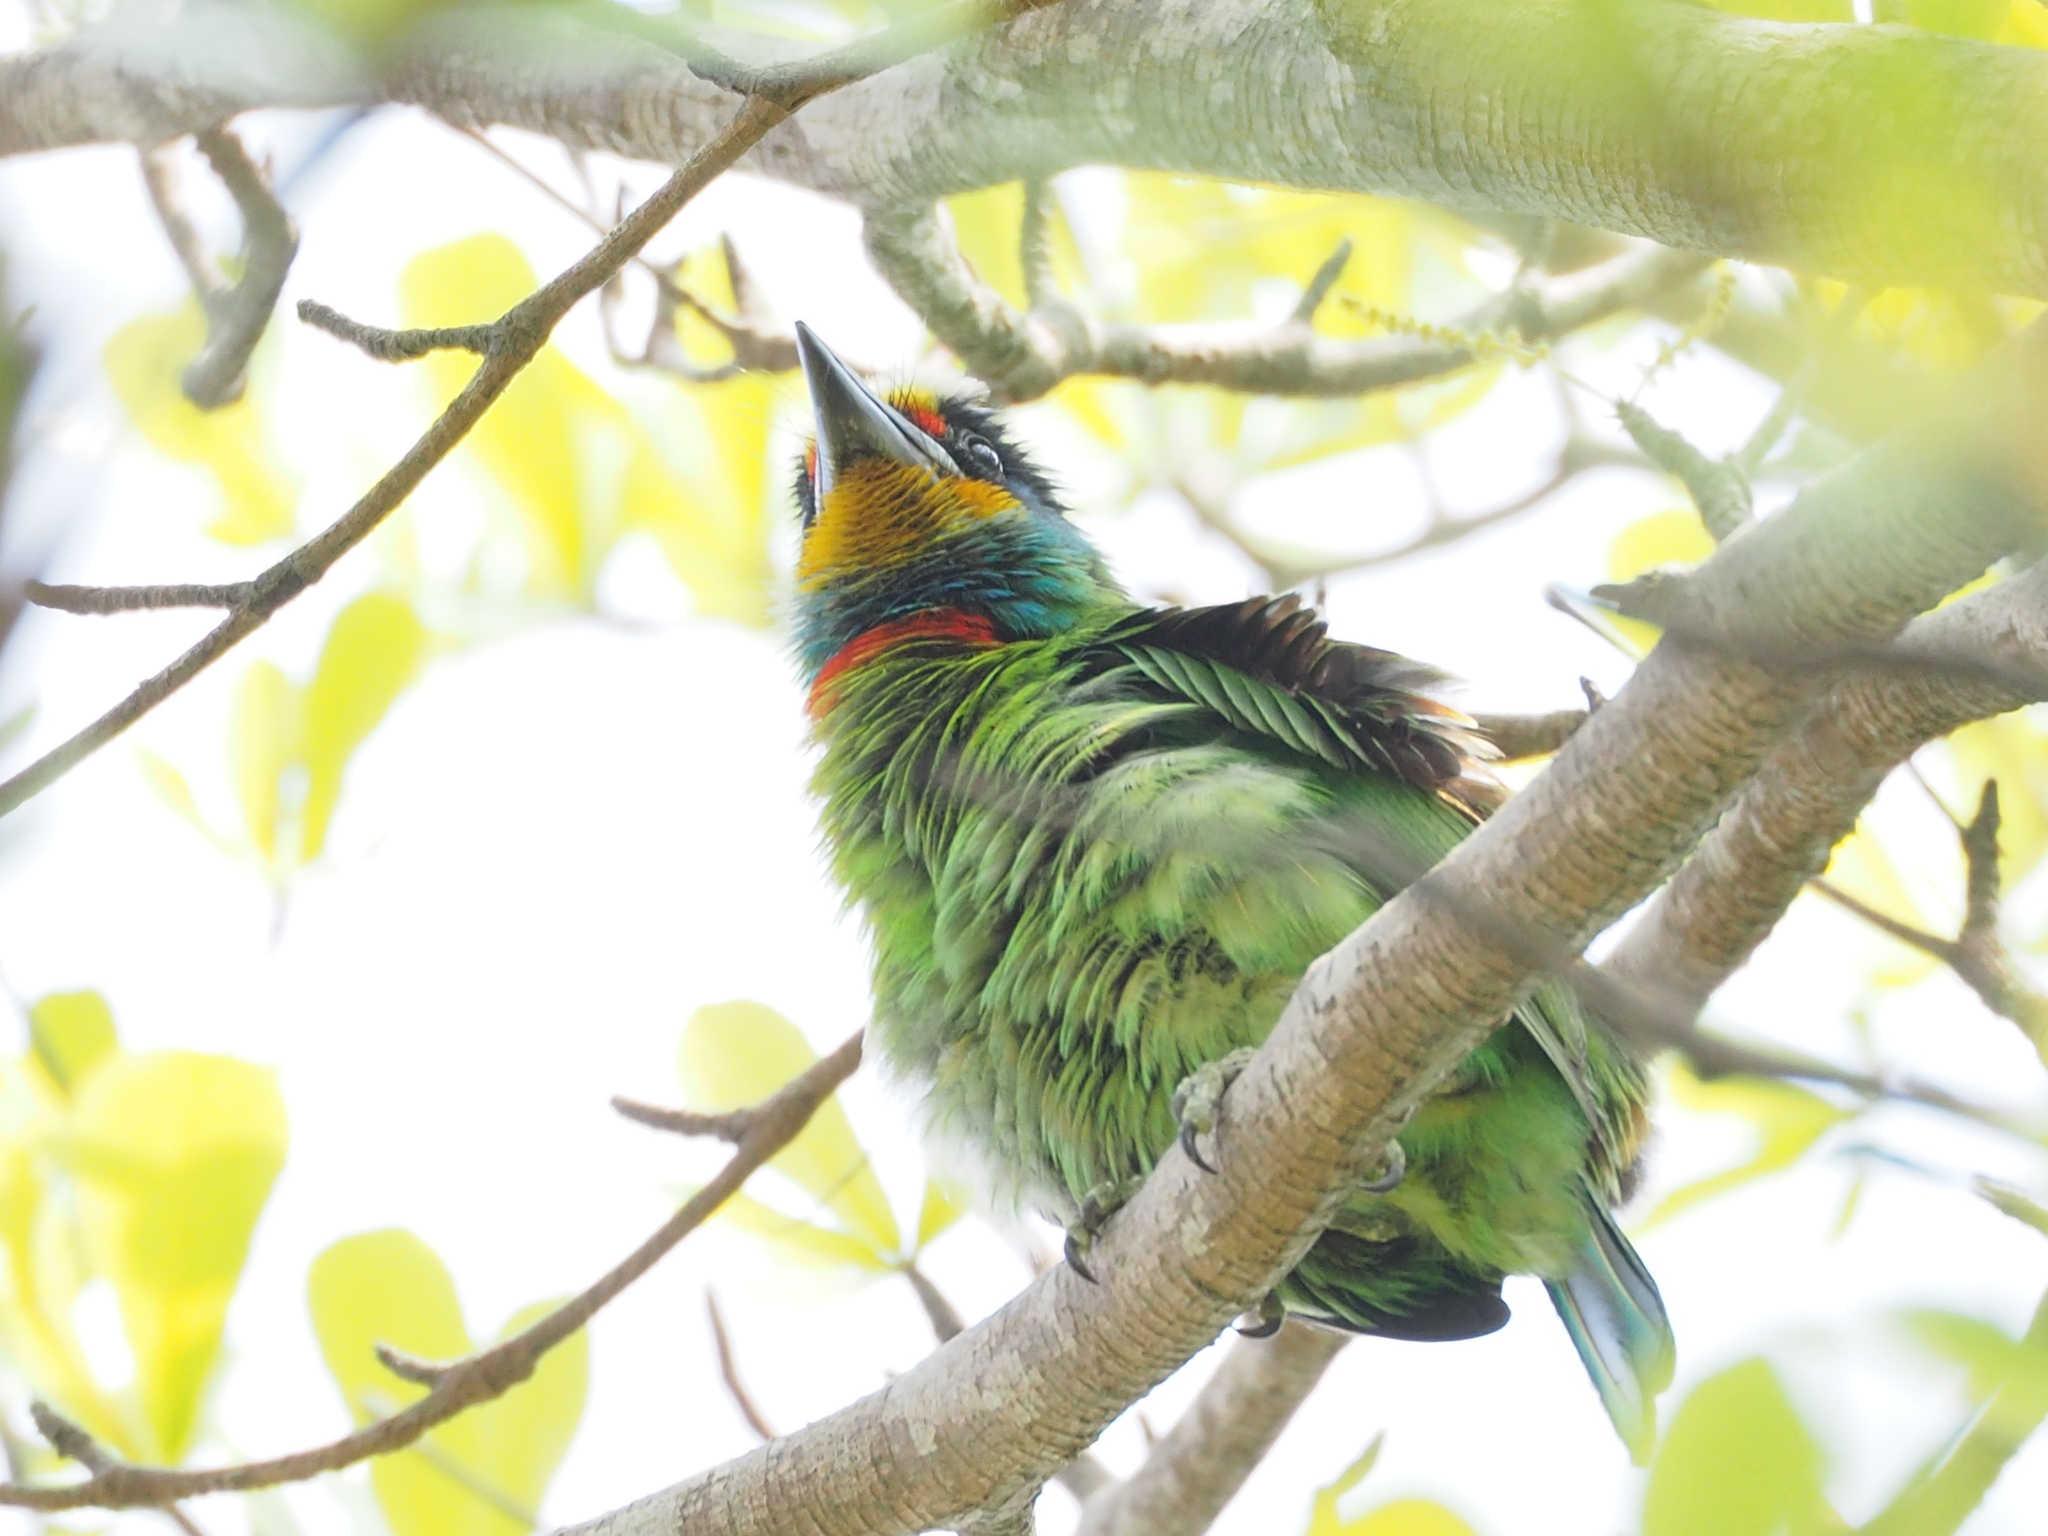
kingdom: Animalia
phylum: Chordata
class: Aves
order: Piciformes
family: Megalaimidae
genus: Psilopogon
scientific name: Psilopogon nuchalis
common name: Taiwan barbet
